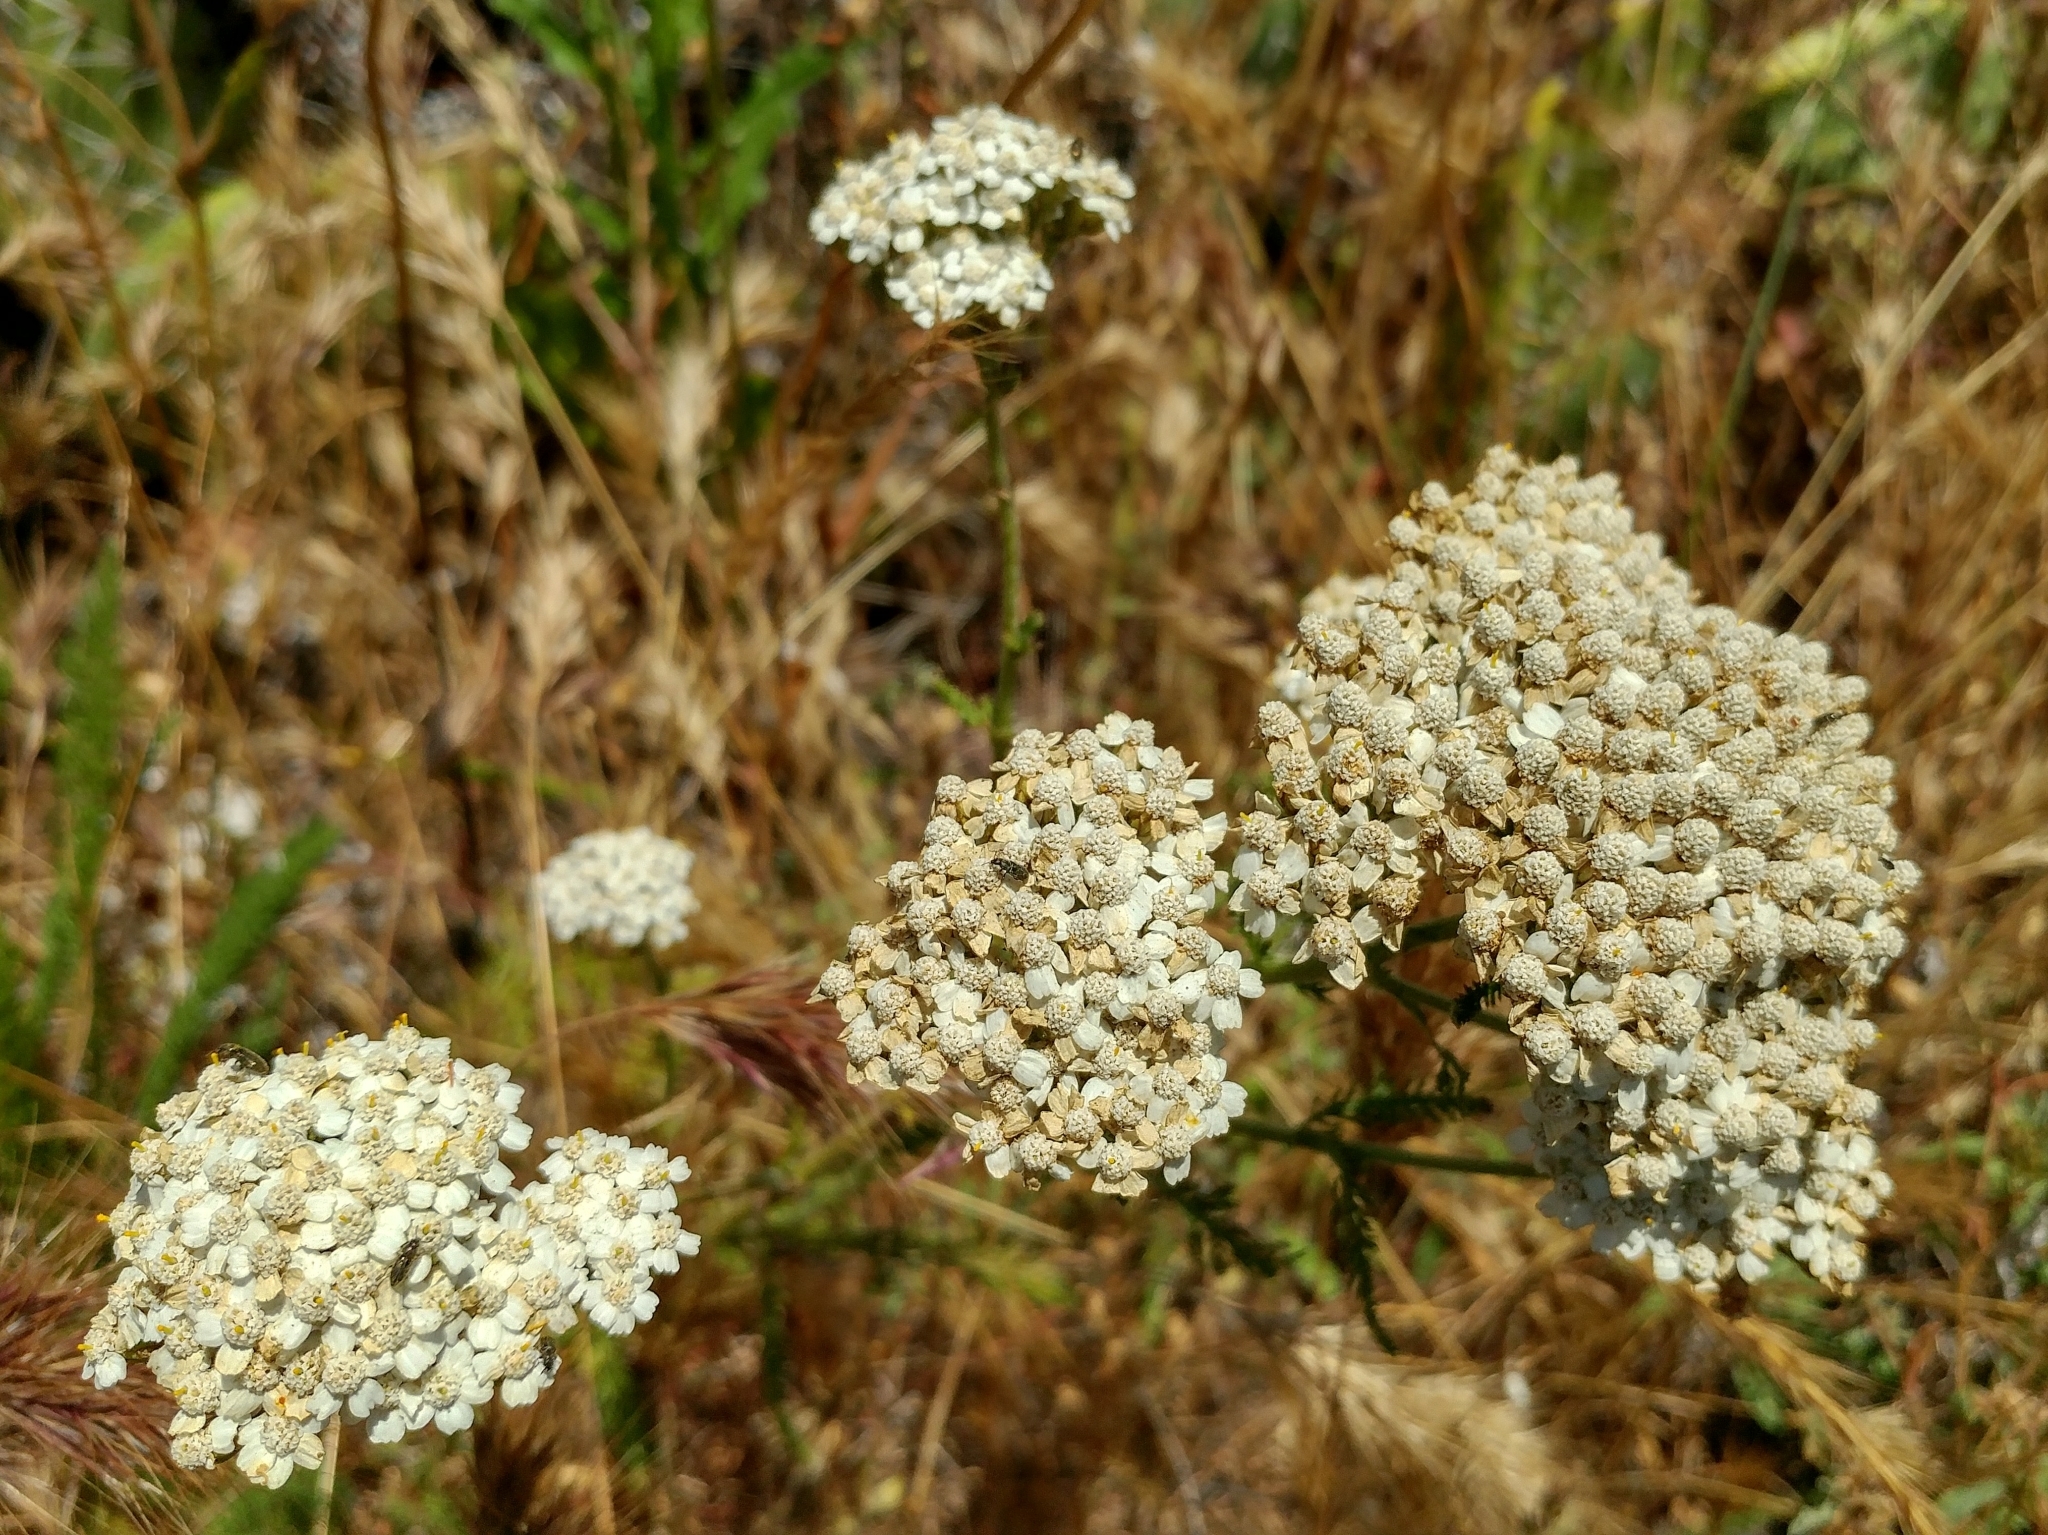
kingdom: Plantae
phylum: Tracheophyta
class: Magnoliopsida
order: Asterales
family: Asteraceae
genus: Achillea
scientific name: Achillea millefolium
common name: Yarrow
